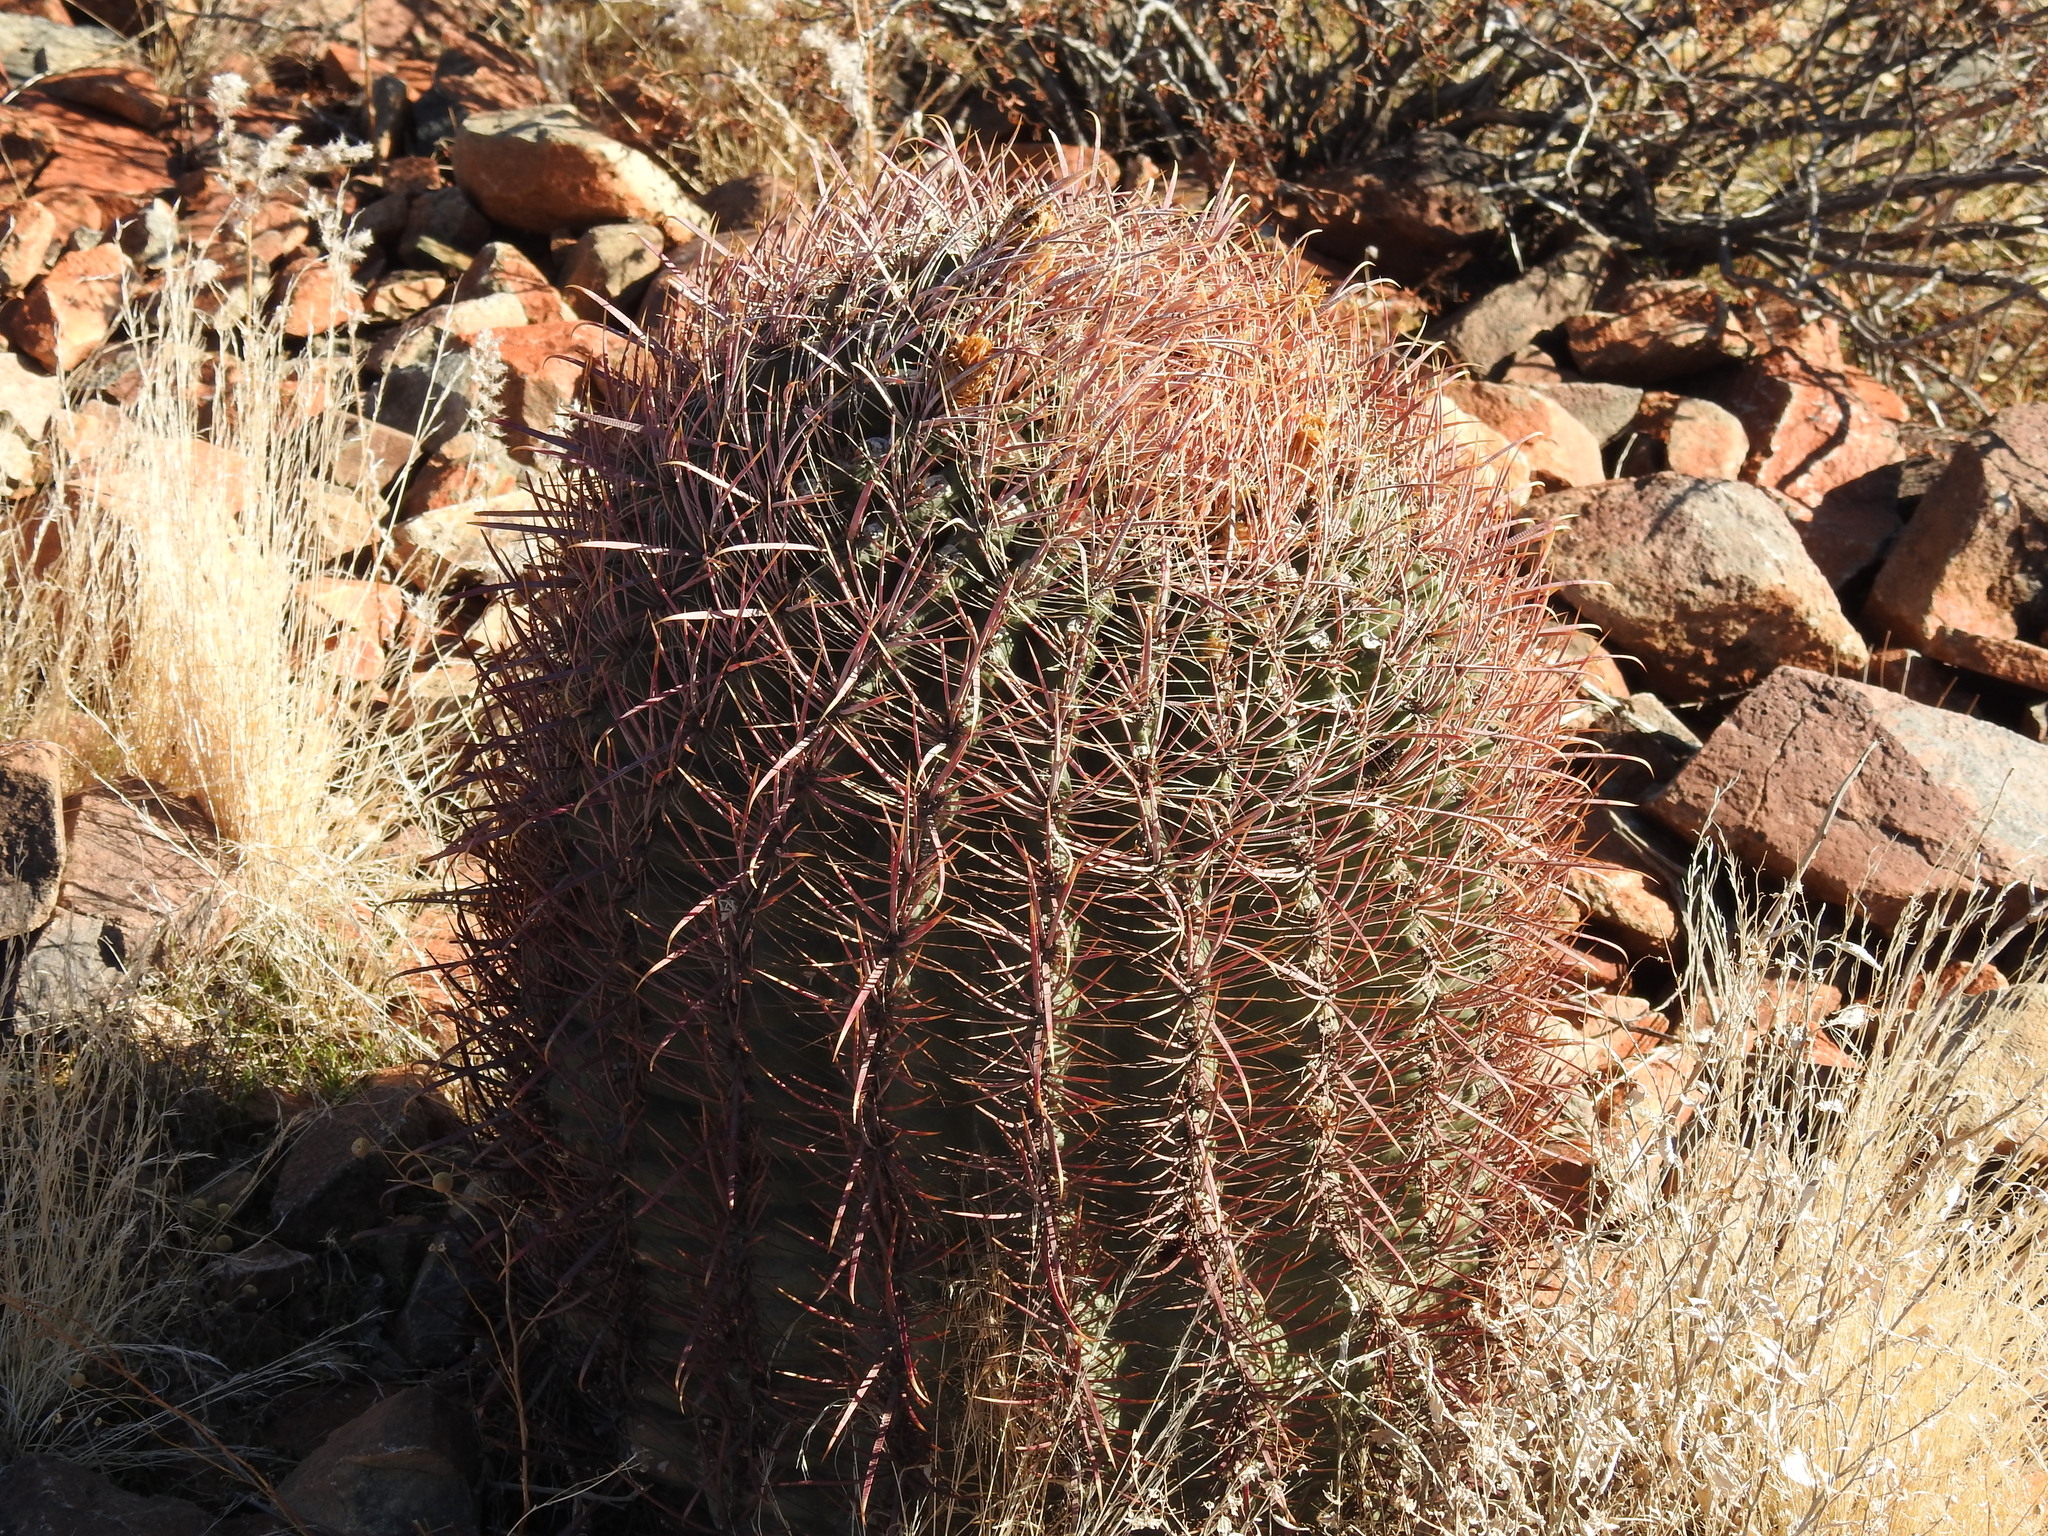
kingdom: Plantae
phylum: Tracheophyta
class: Magnoliopsida
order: Caryophyllales
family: Cactaceae
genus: Ferocactus
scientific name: Ferocactus cylindraceus
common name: California barrel cactus
